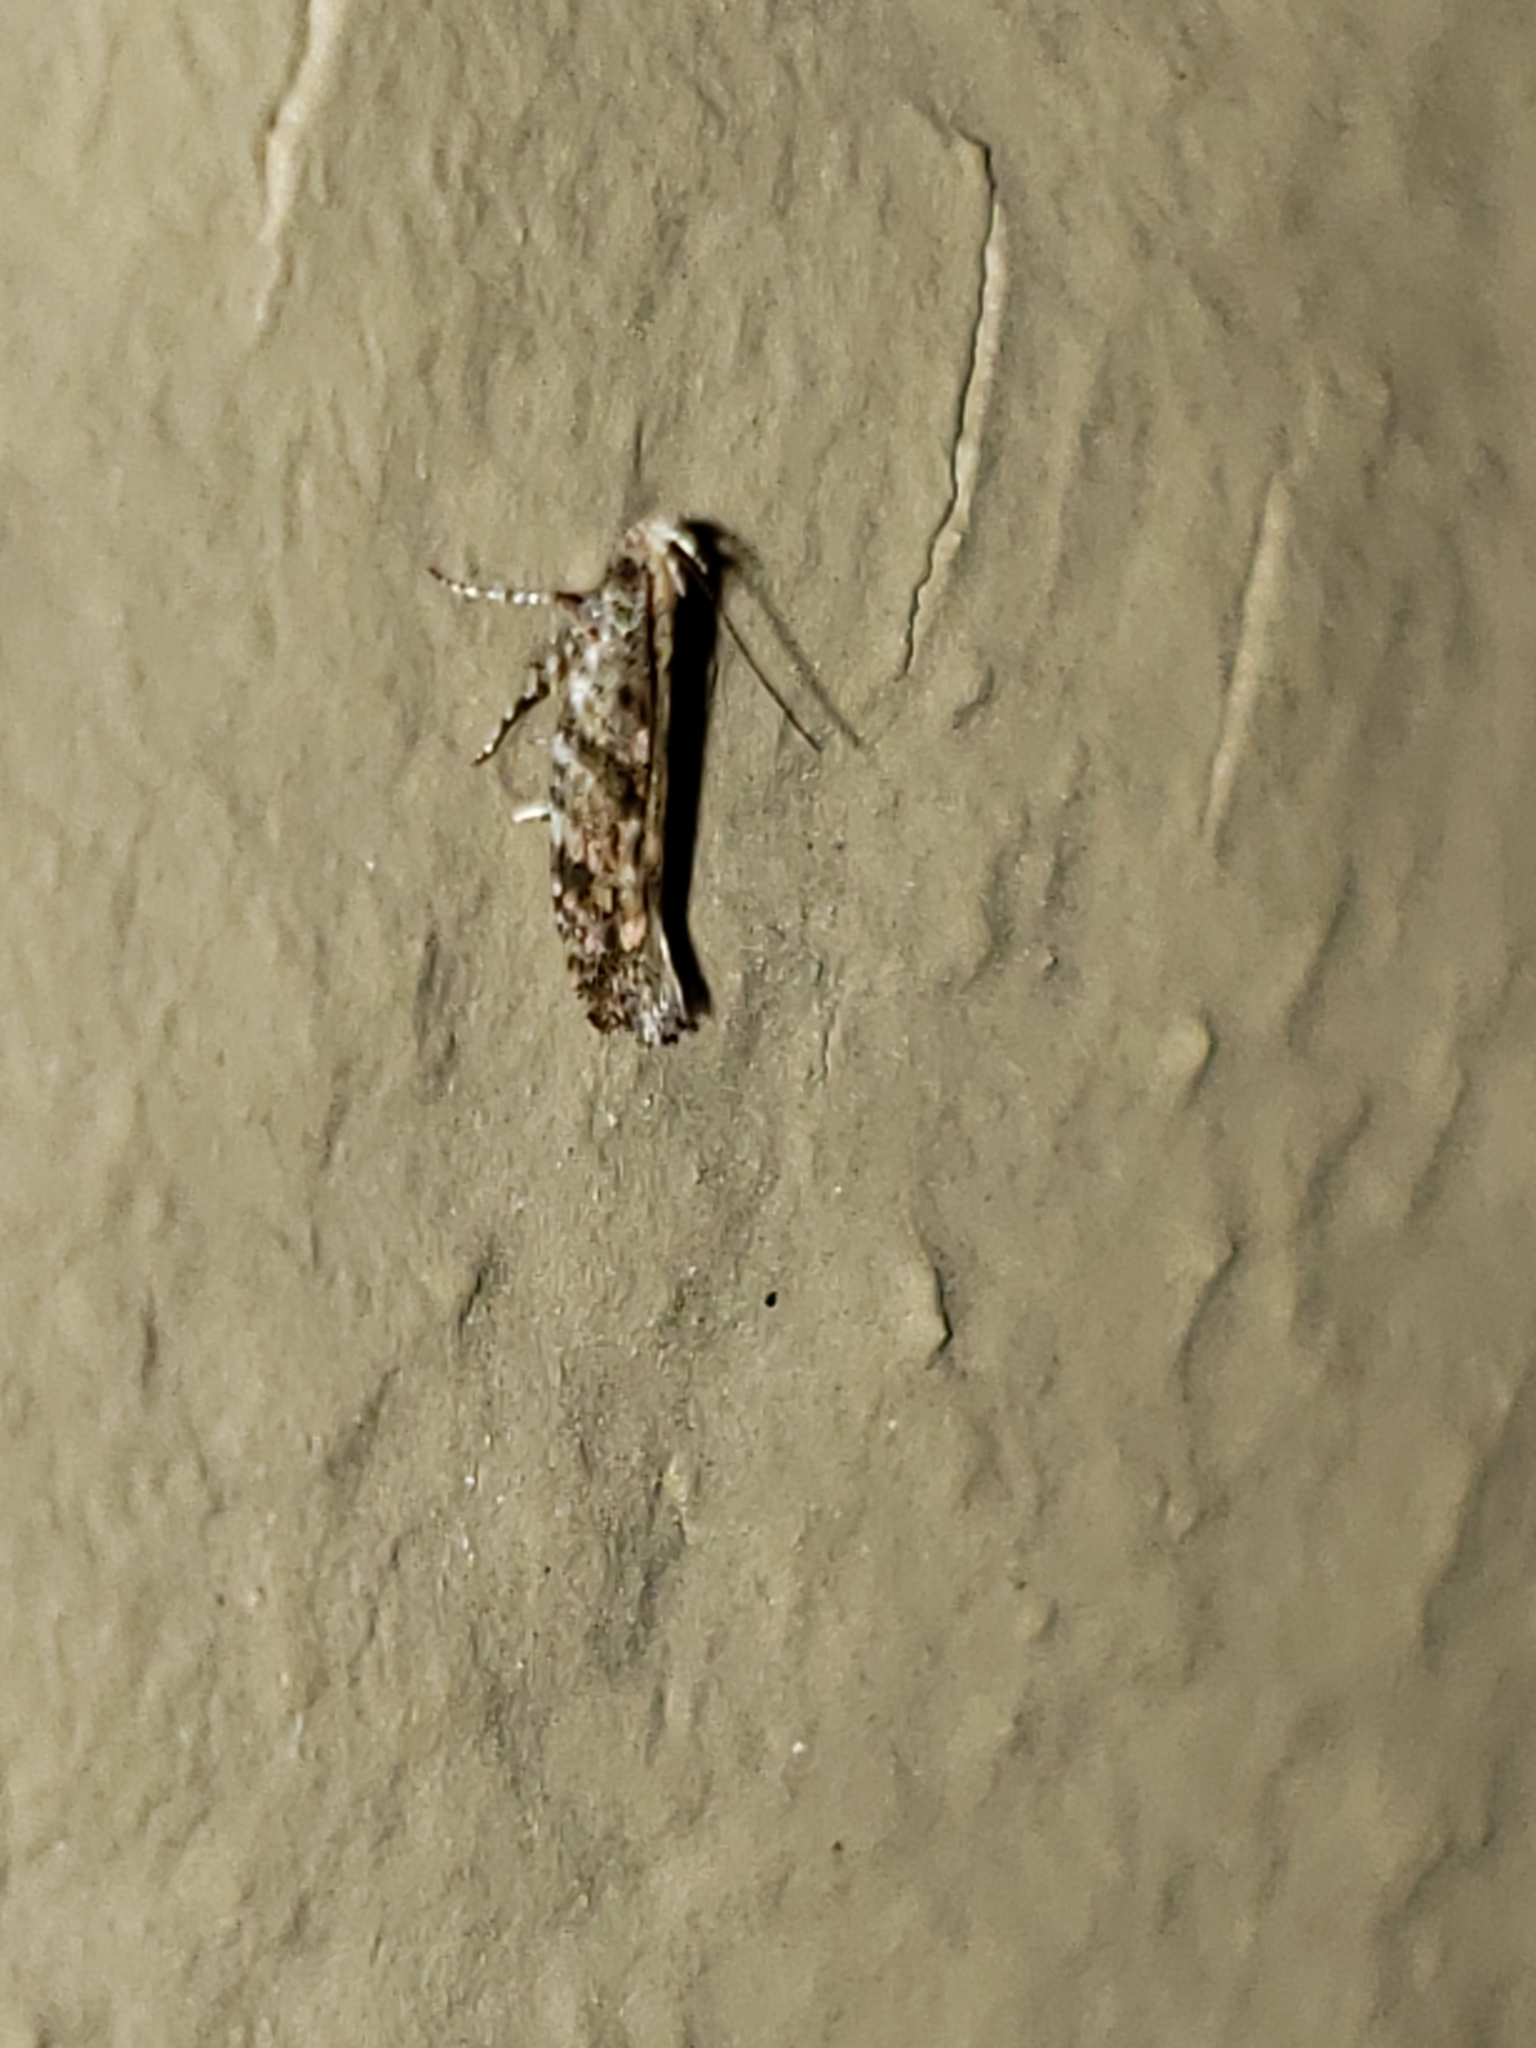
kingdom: Animalia
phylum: Arthropoda
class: Insecta
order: Lepidoptera
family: Gelechiidae
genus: Aristotelia
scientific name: Aristotelia roseosuffusella
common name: Pink-washed aristotelia moth
